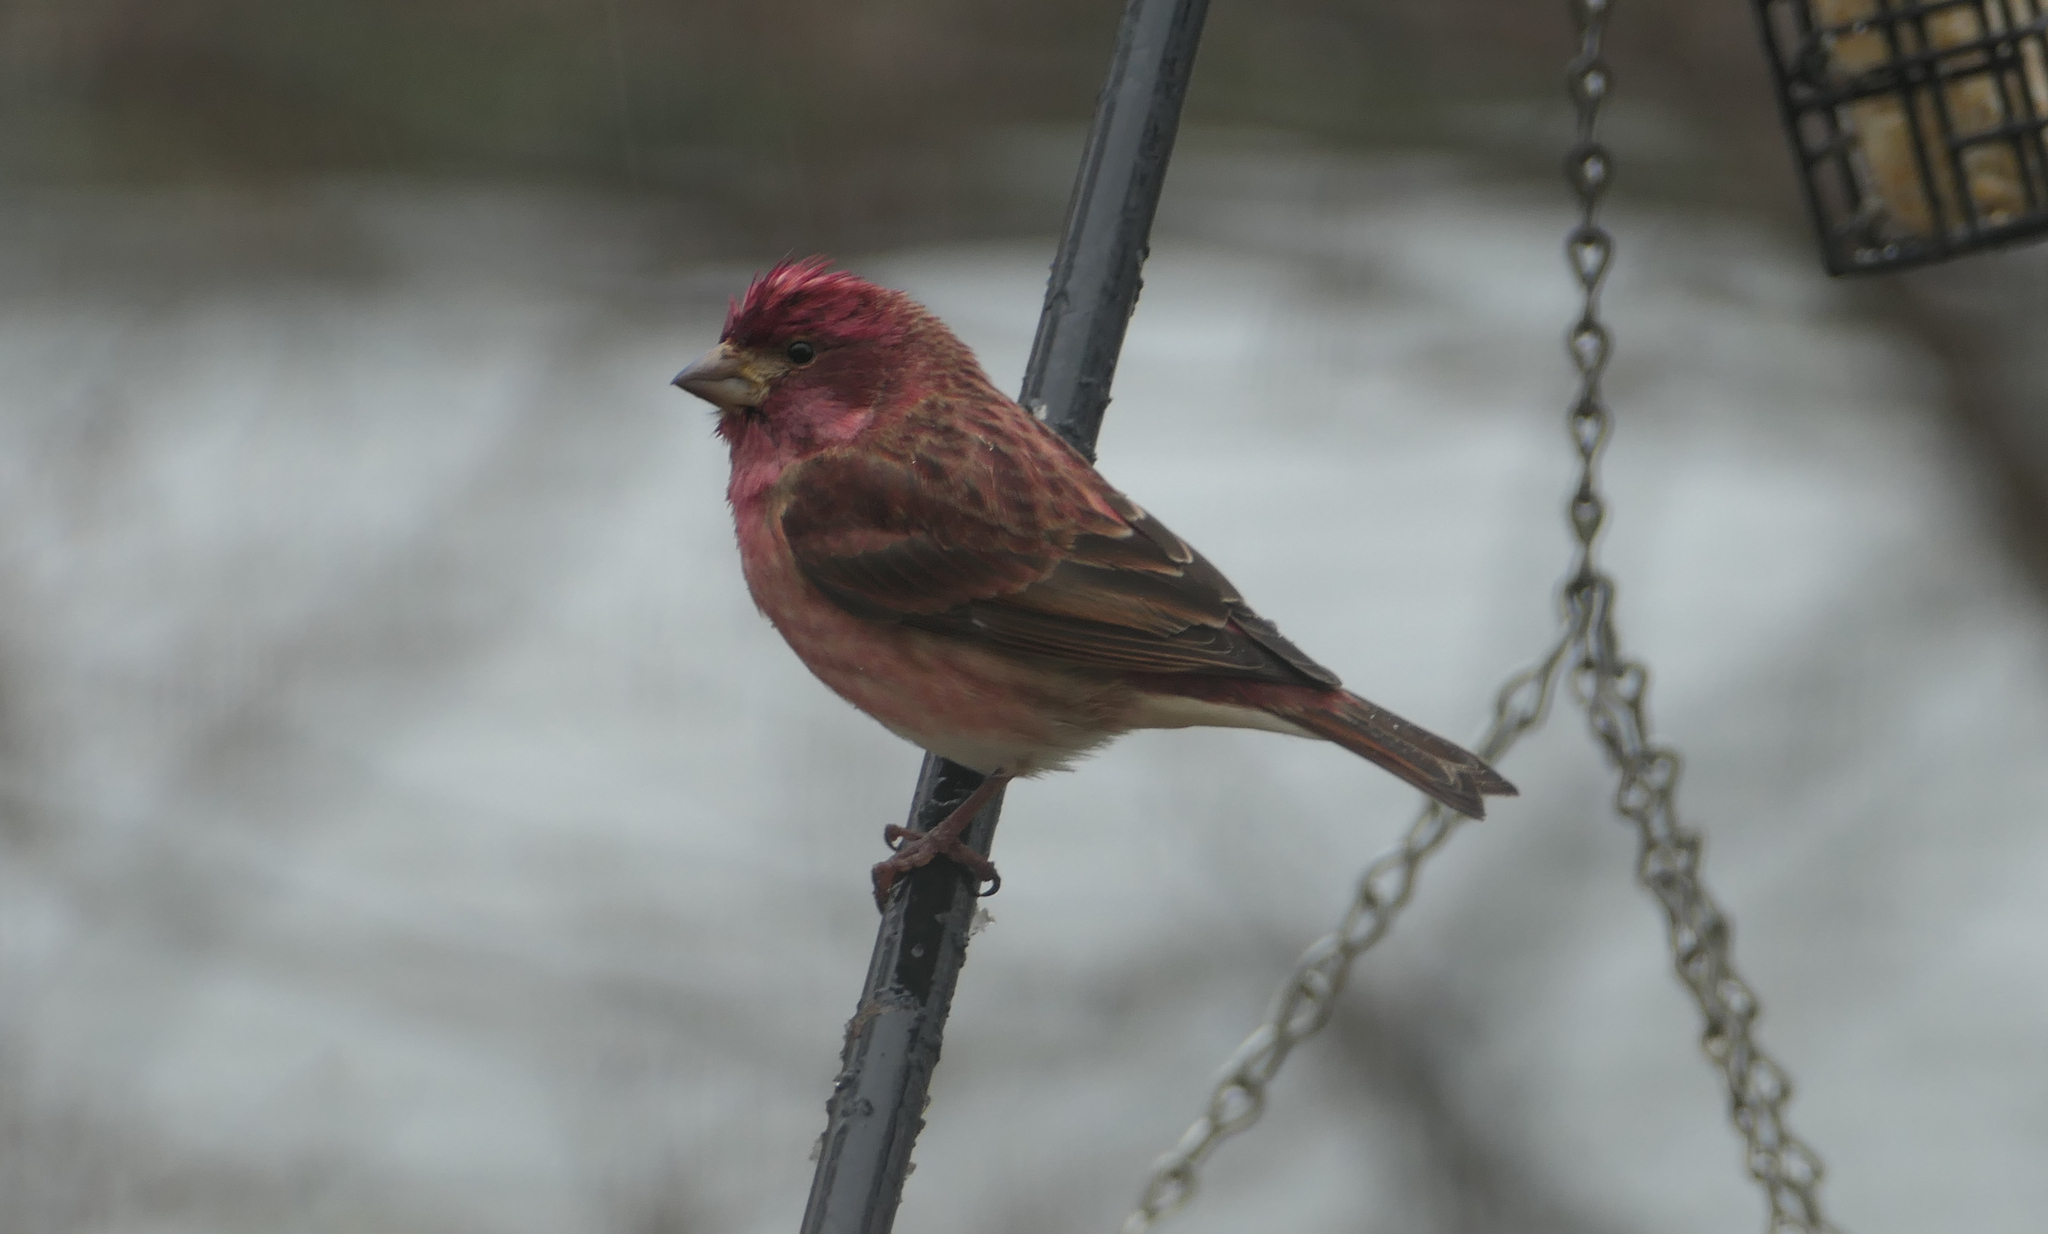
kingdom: Animalia
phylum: Chordata
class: Aves
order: Passeriformes
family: Fringillidae
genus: Haemorhous
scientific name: Haemorhous purpureus
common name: Purple finch
